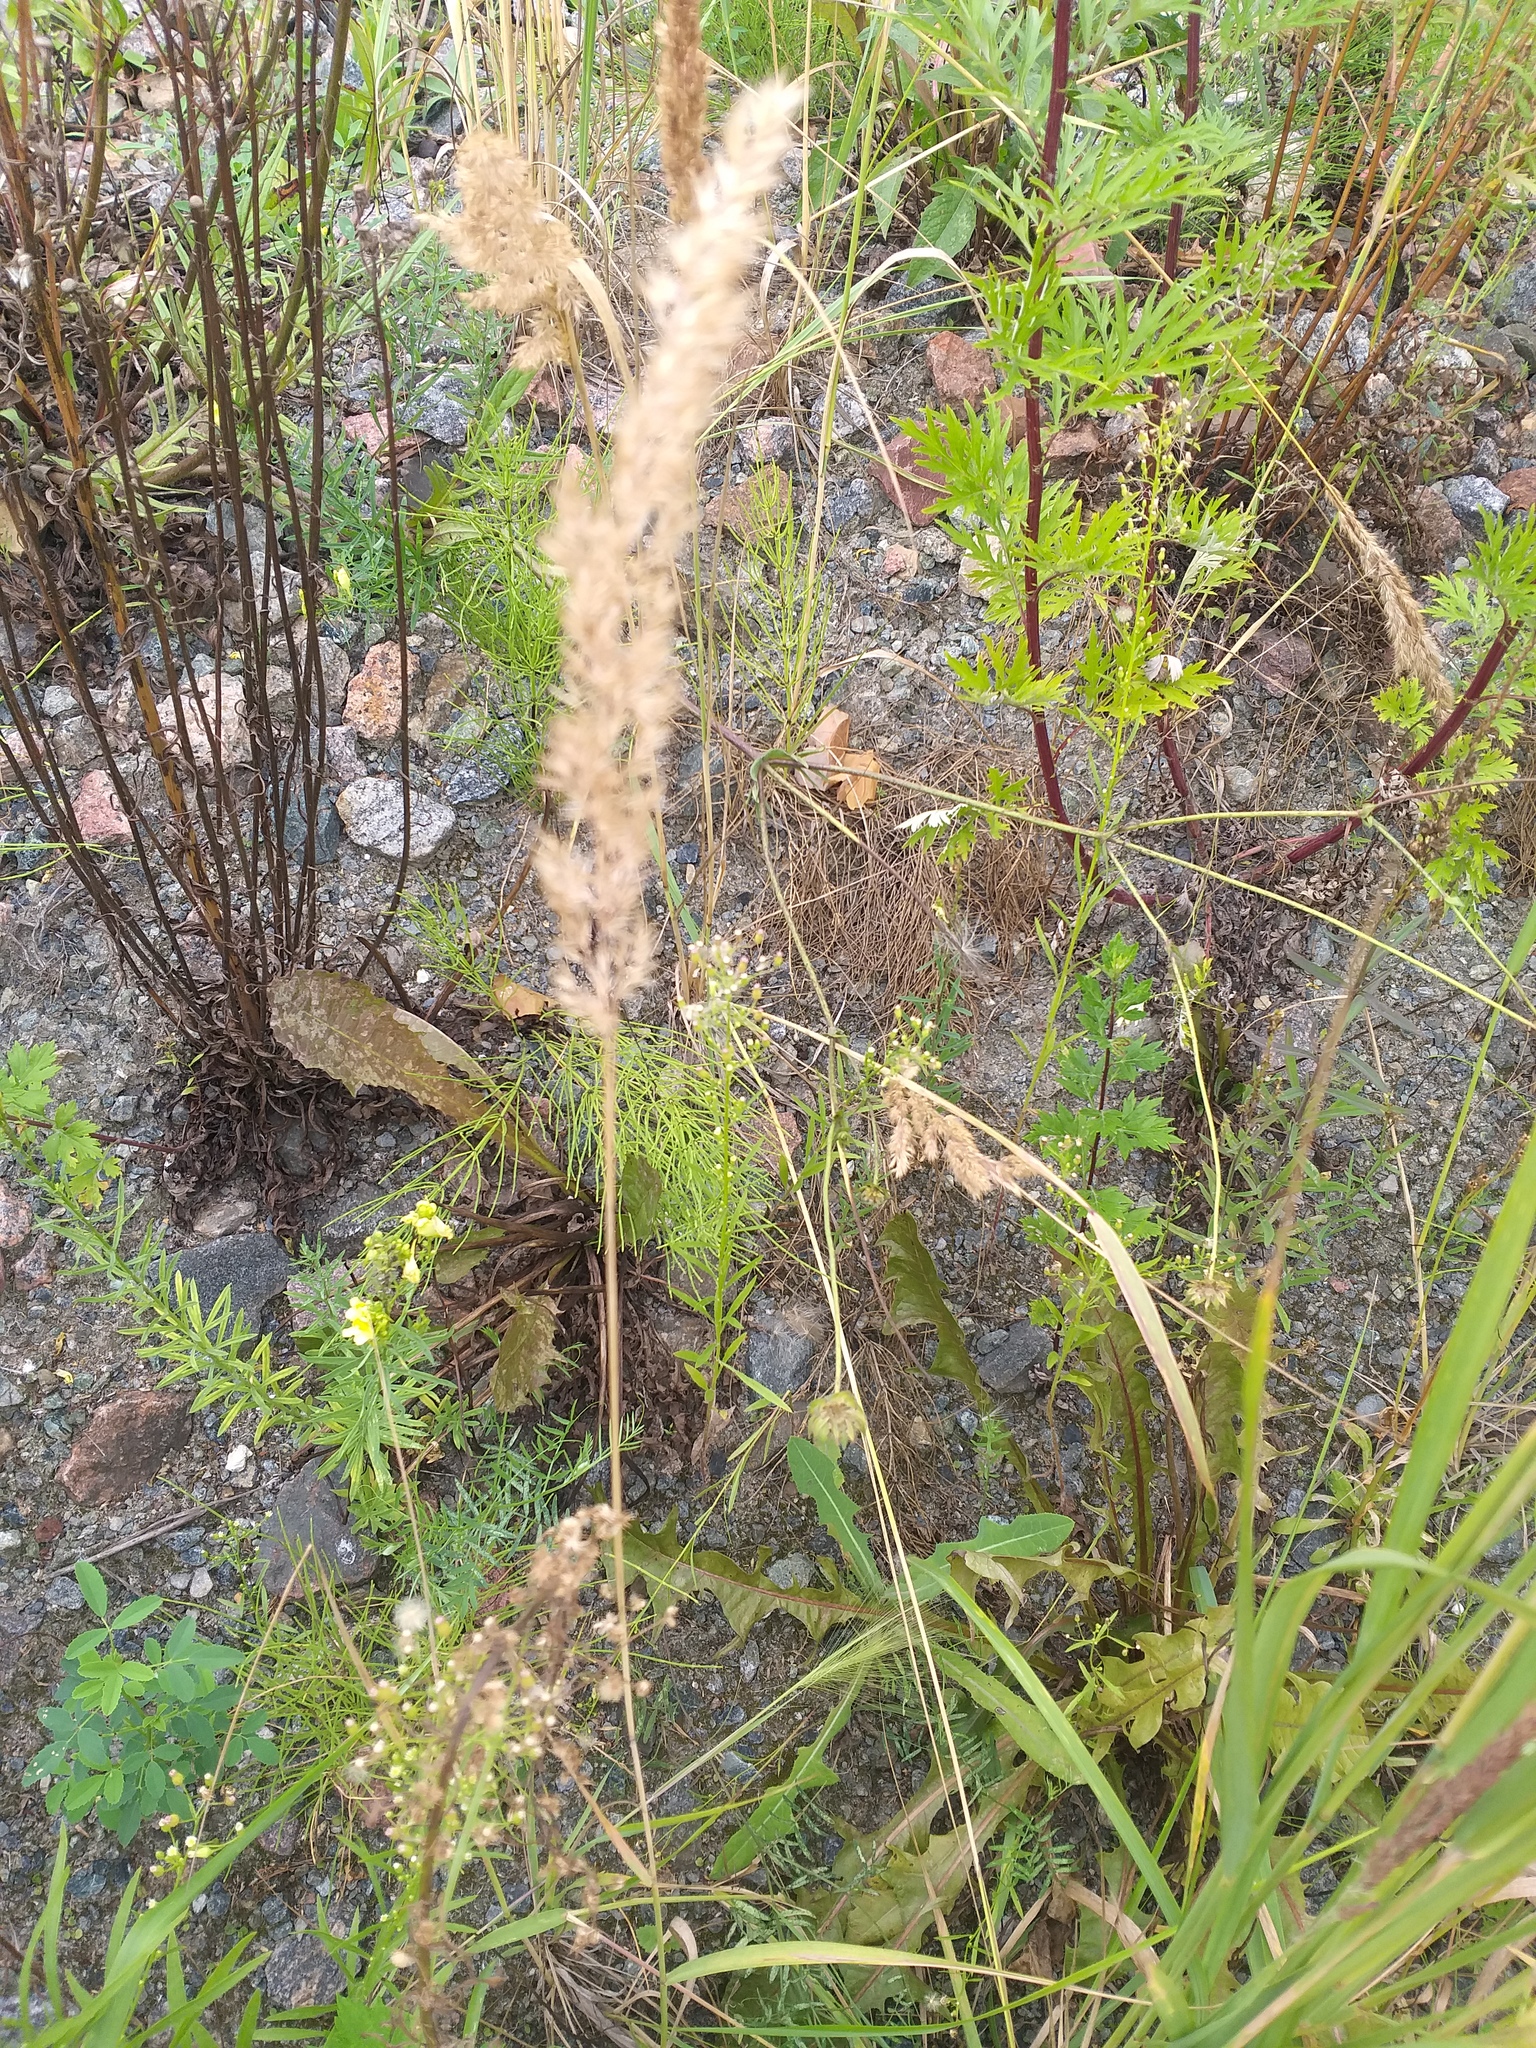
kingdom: Plantae
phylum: Tracheophyta
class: Magnoliopsida
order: Asterales
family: Asteraceae
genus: Erigeron
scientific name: Erigeron canadensis
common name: Canadian fleabane
